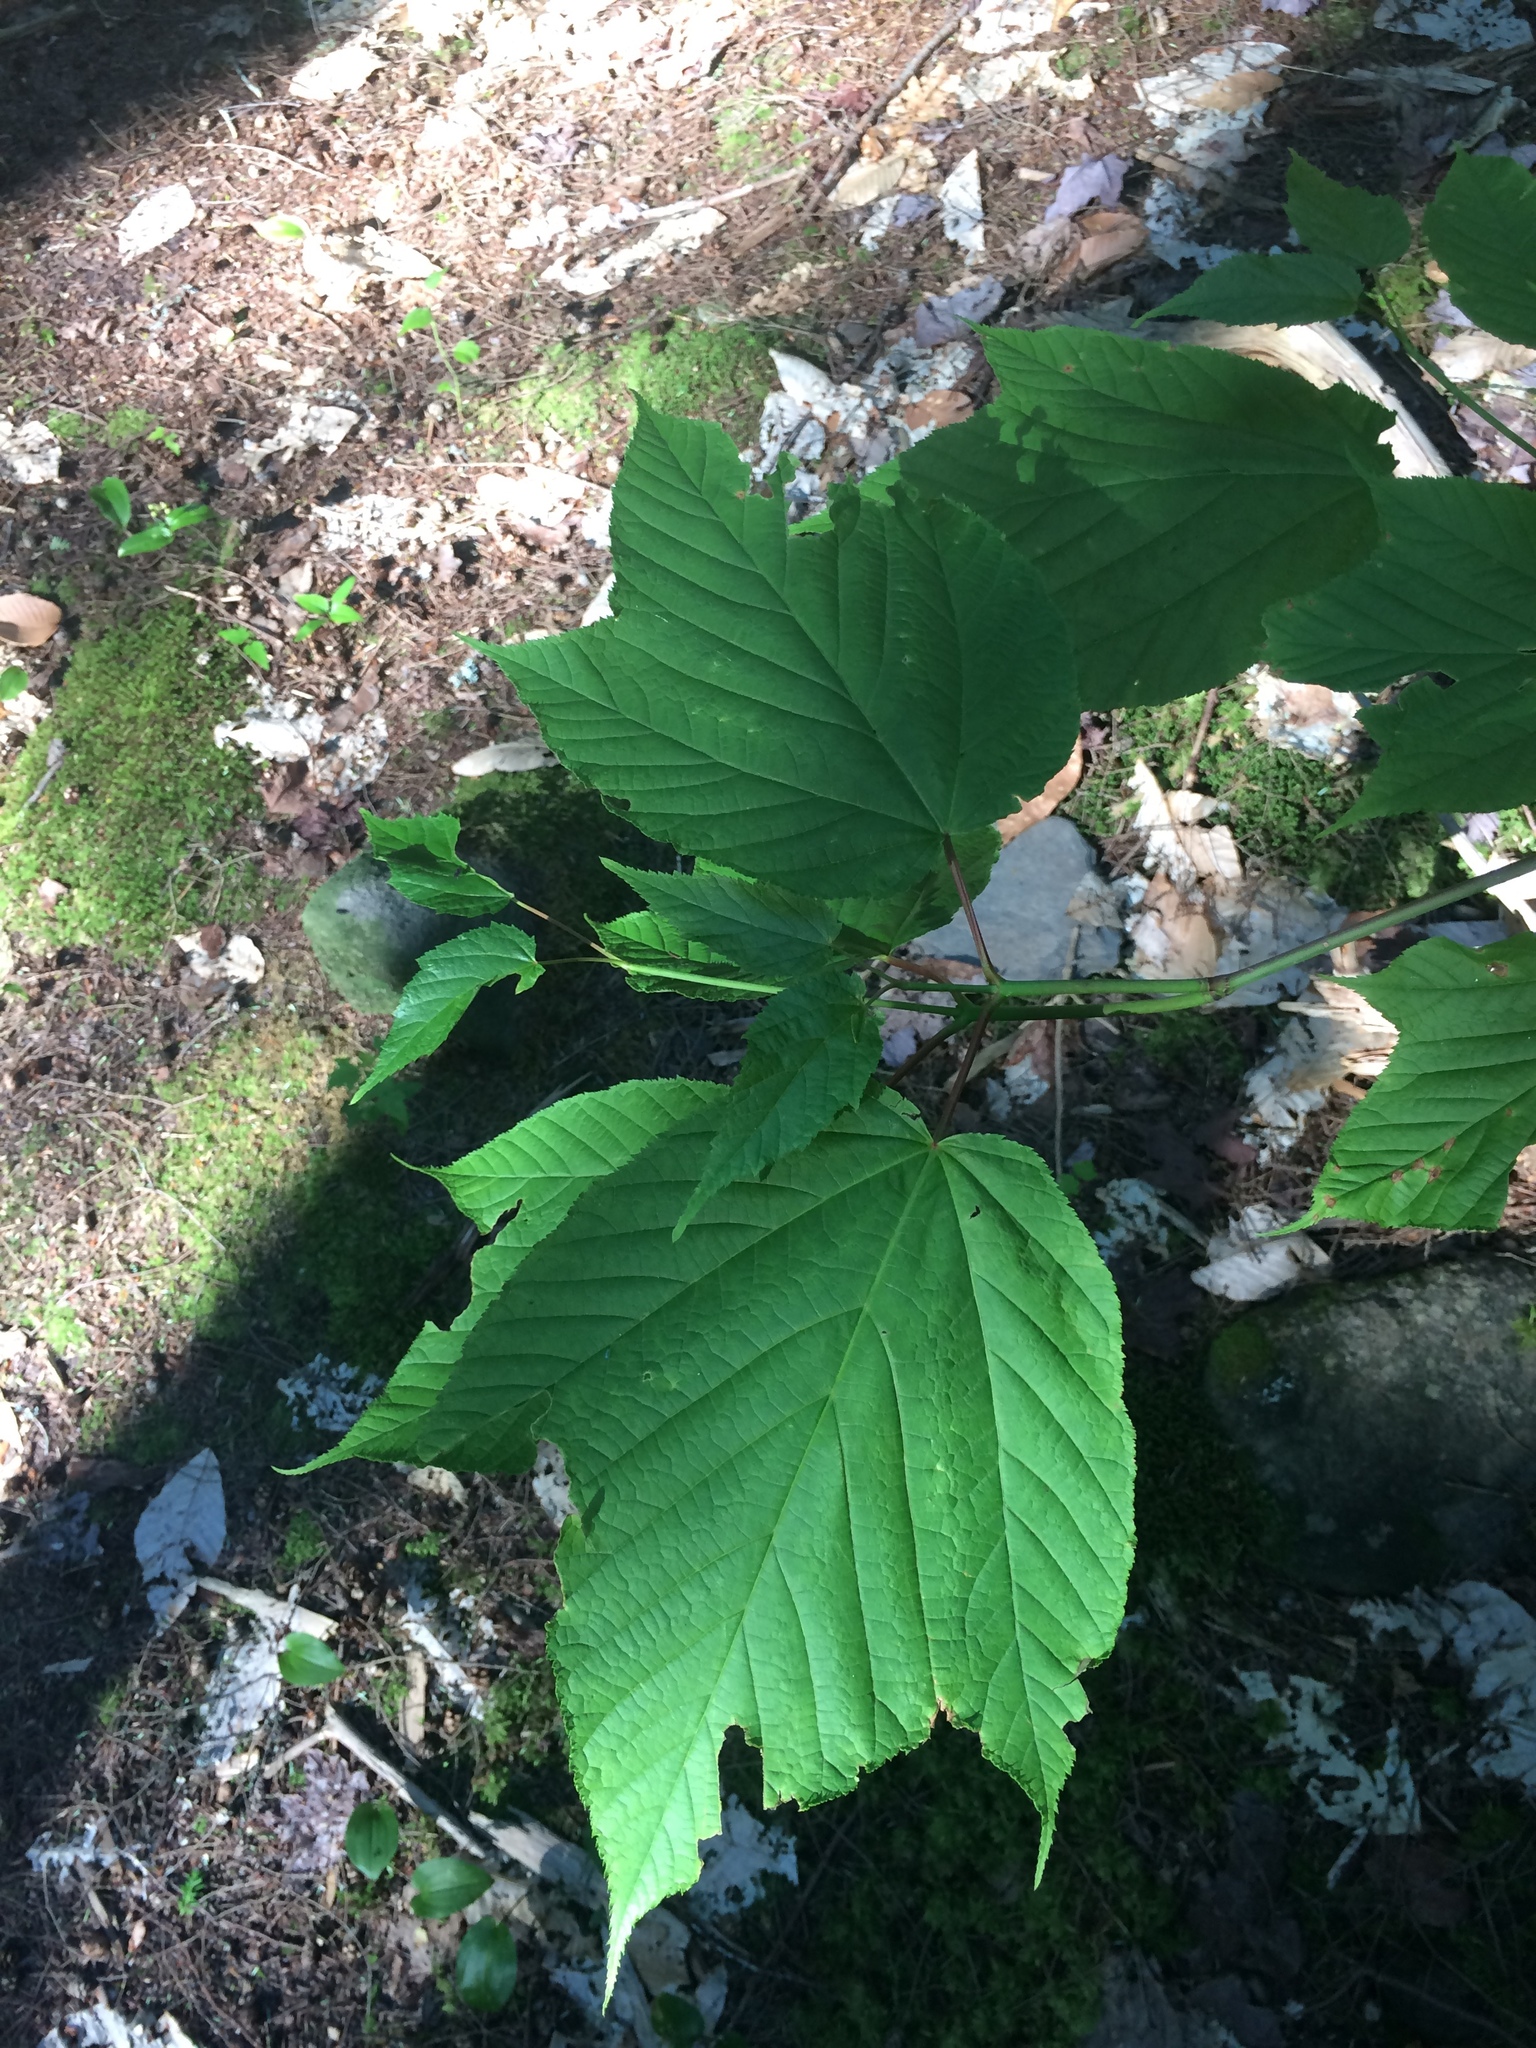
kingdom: Plantae
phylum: Tracheophyta
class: Magnoliopsida
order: Sapindales
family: Sapindaceae
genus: Acer
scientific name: Acer pensylvanicum
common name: Moosewood
